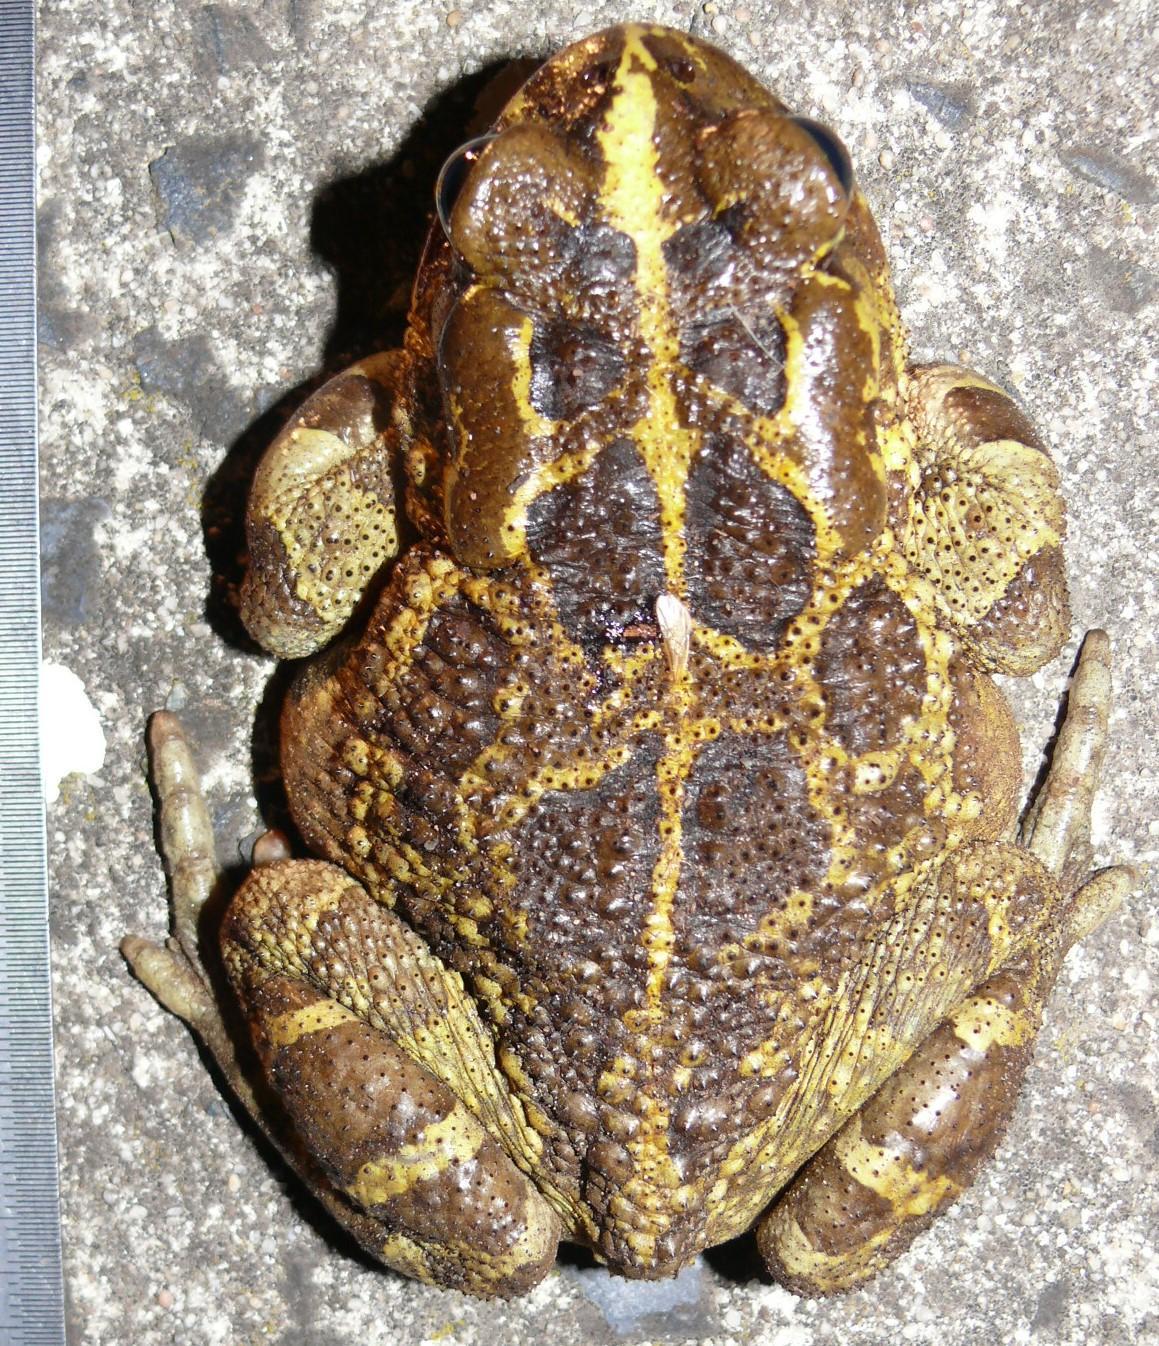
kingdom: Animalia
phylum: Chordata
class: Amphibia
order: Anura
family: Bufonidae
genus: Sclerophrys
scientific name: Sclerophrys pantherina
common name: Panther toad
